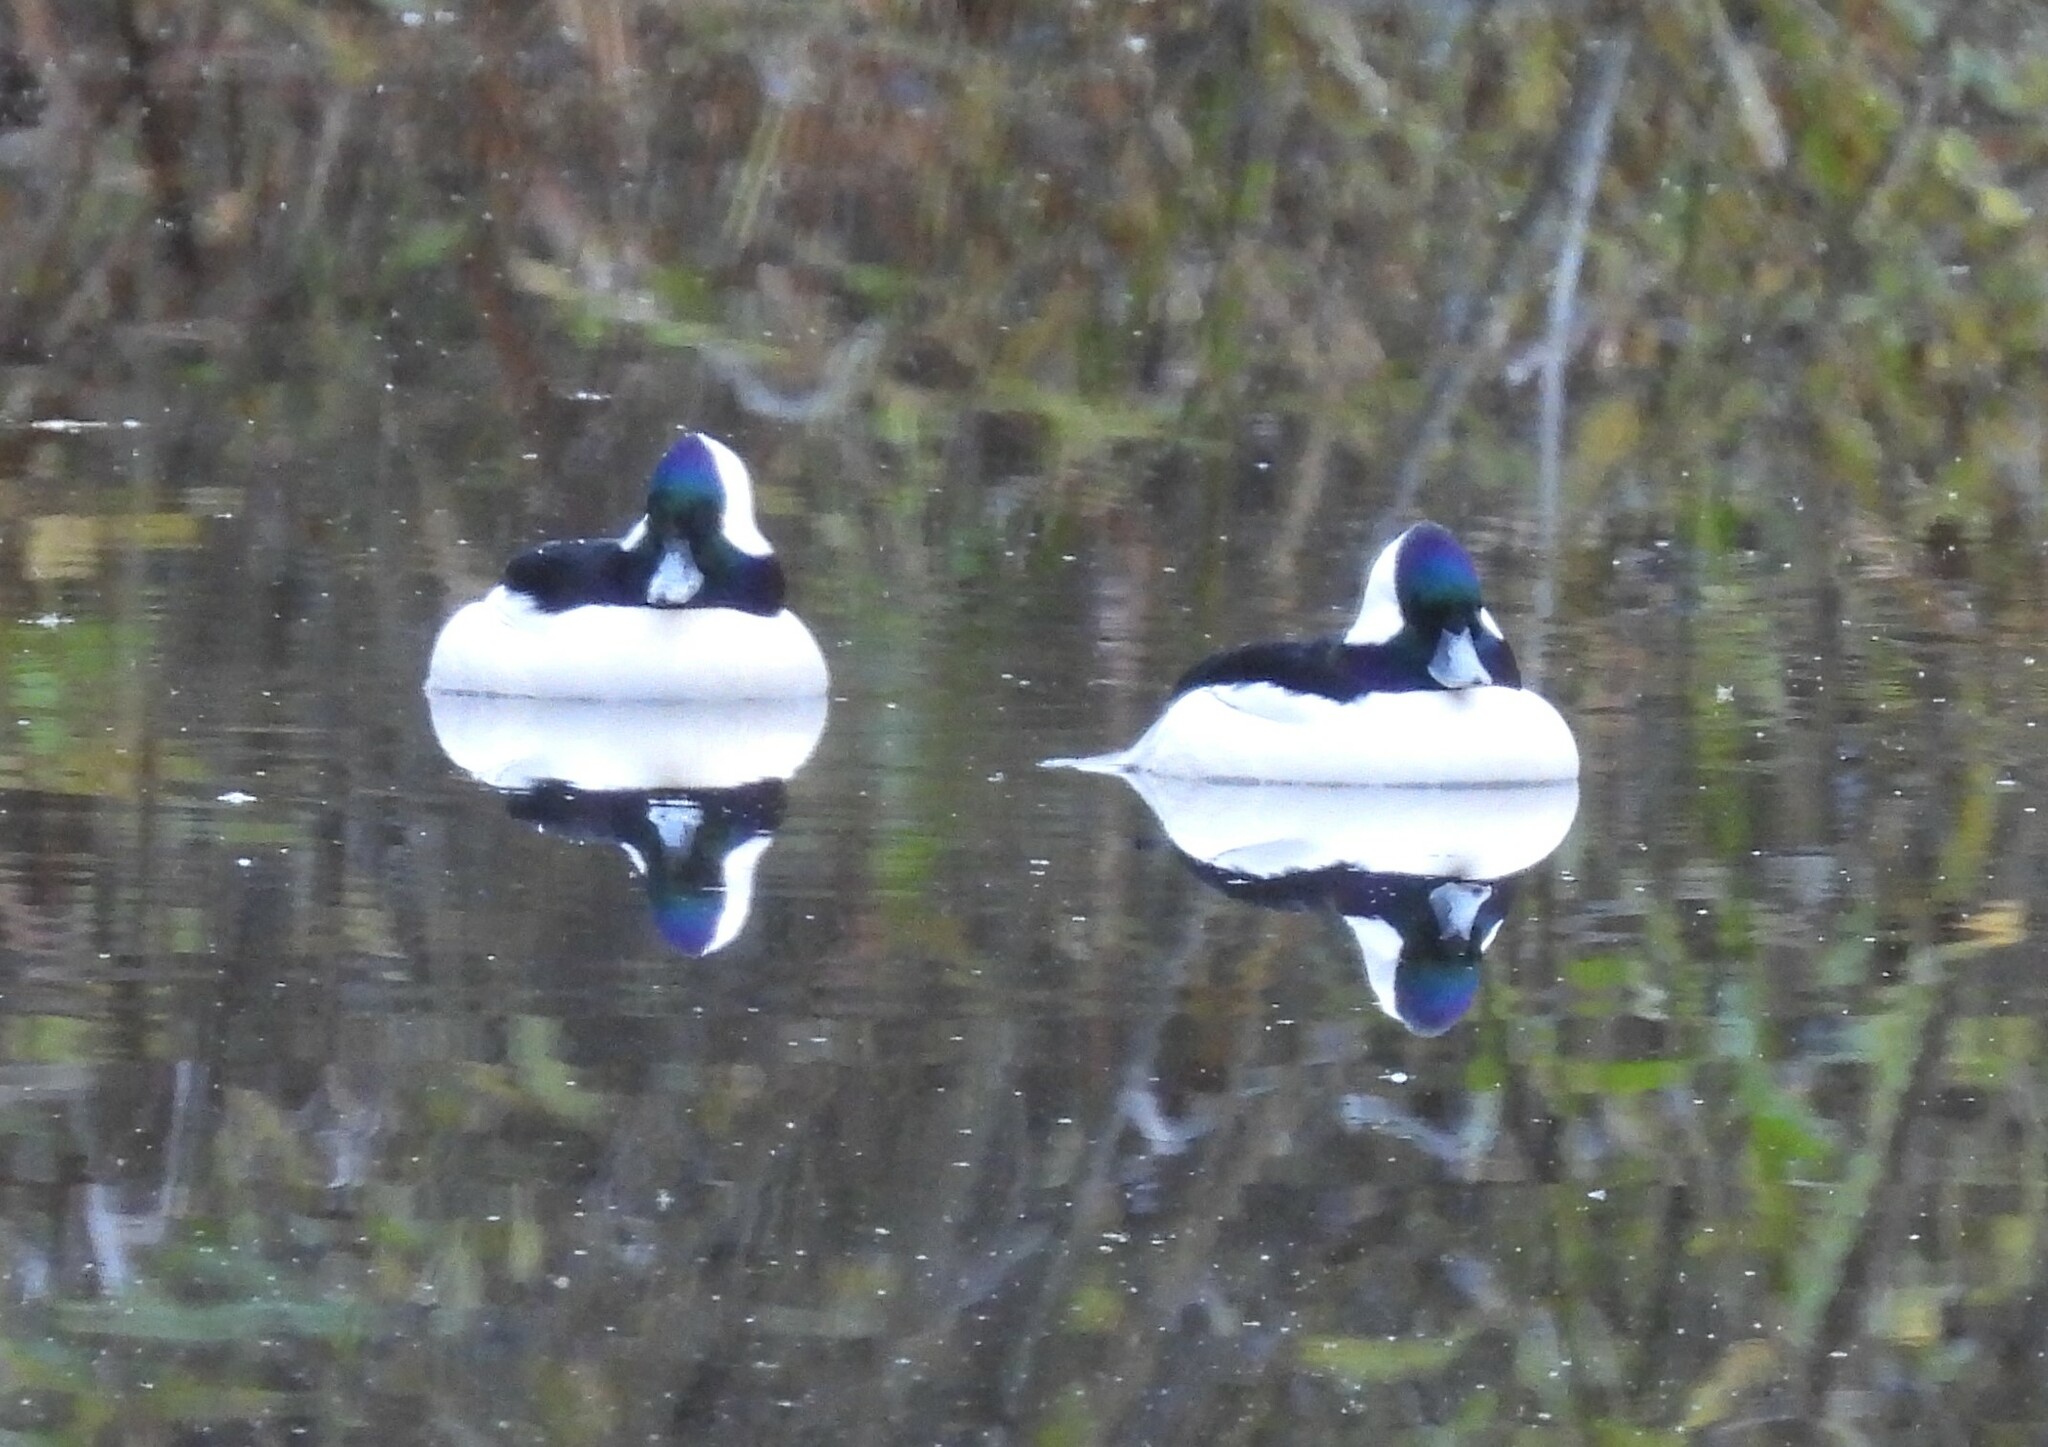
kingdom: Animalia
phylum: Chordata
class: Aves
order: Anseriformes
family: Anatidae
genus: Bucephala
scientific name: Bucephala albeola
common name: Bufflehead
